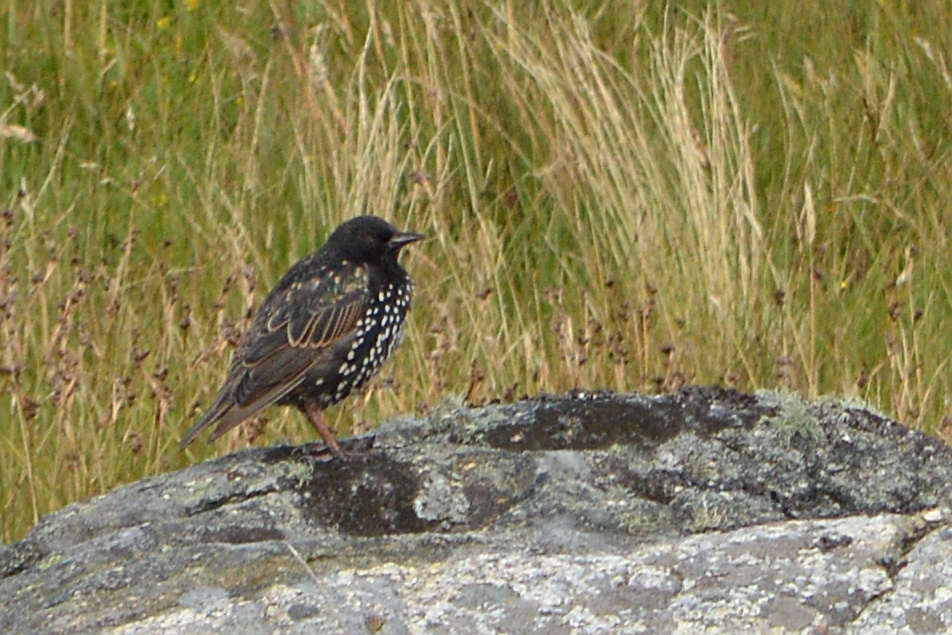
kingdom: Animalia
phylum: Chordata
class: Aves
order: Passeriformes
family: Sturnidae
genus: Sturnus
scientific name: Sturnus vulgaris
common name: Common starling
